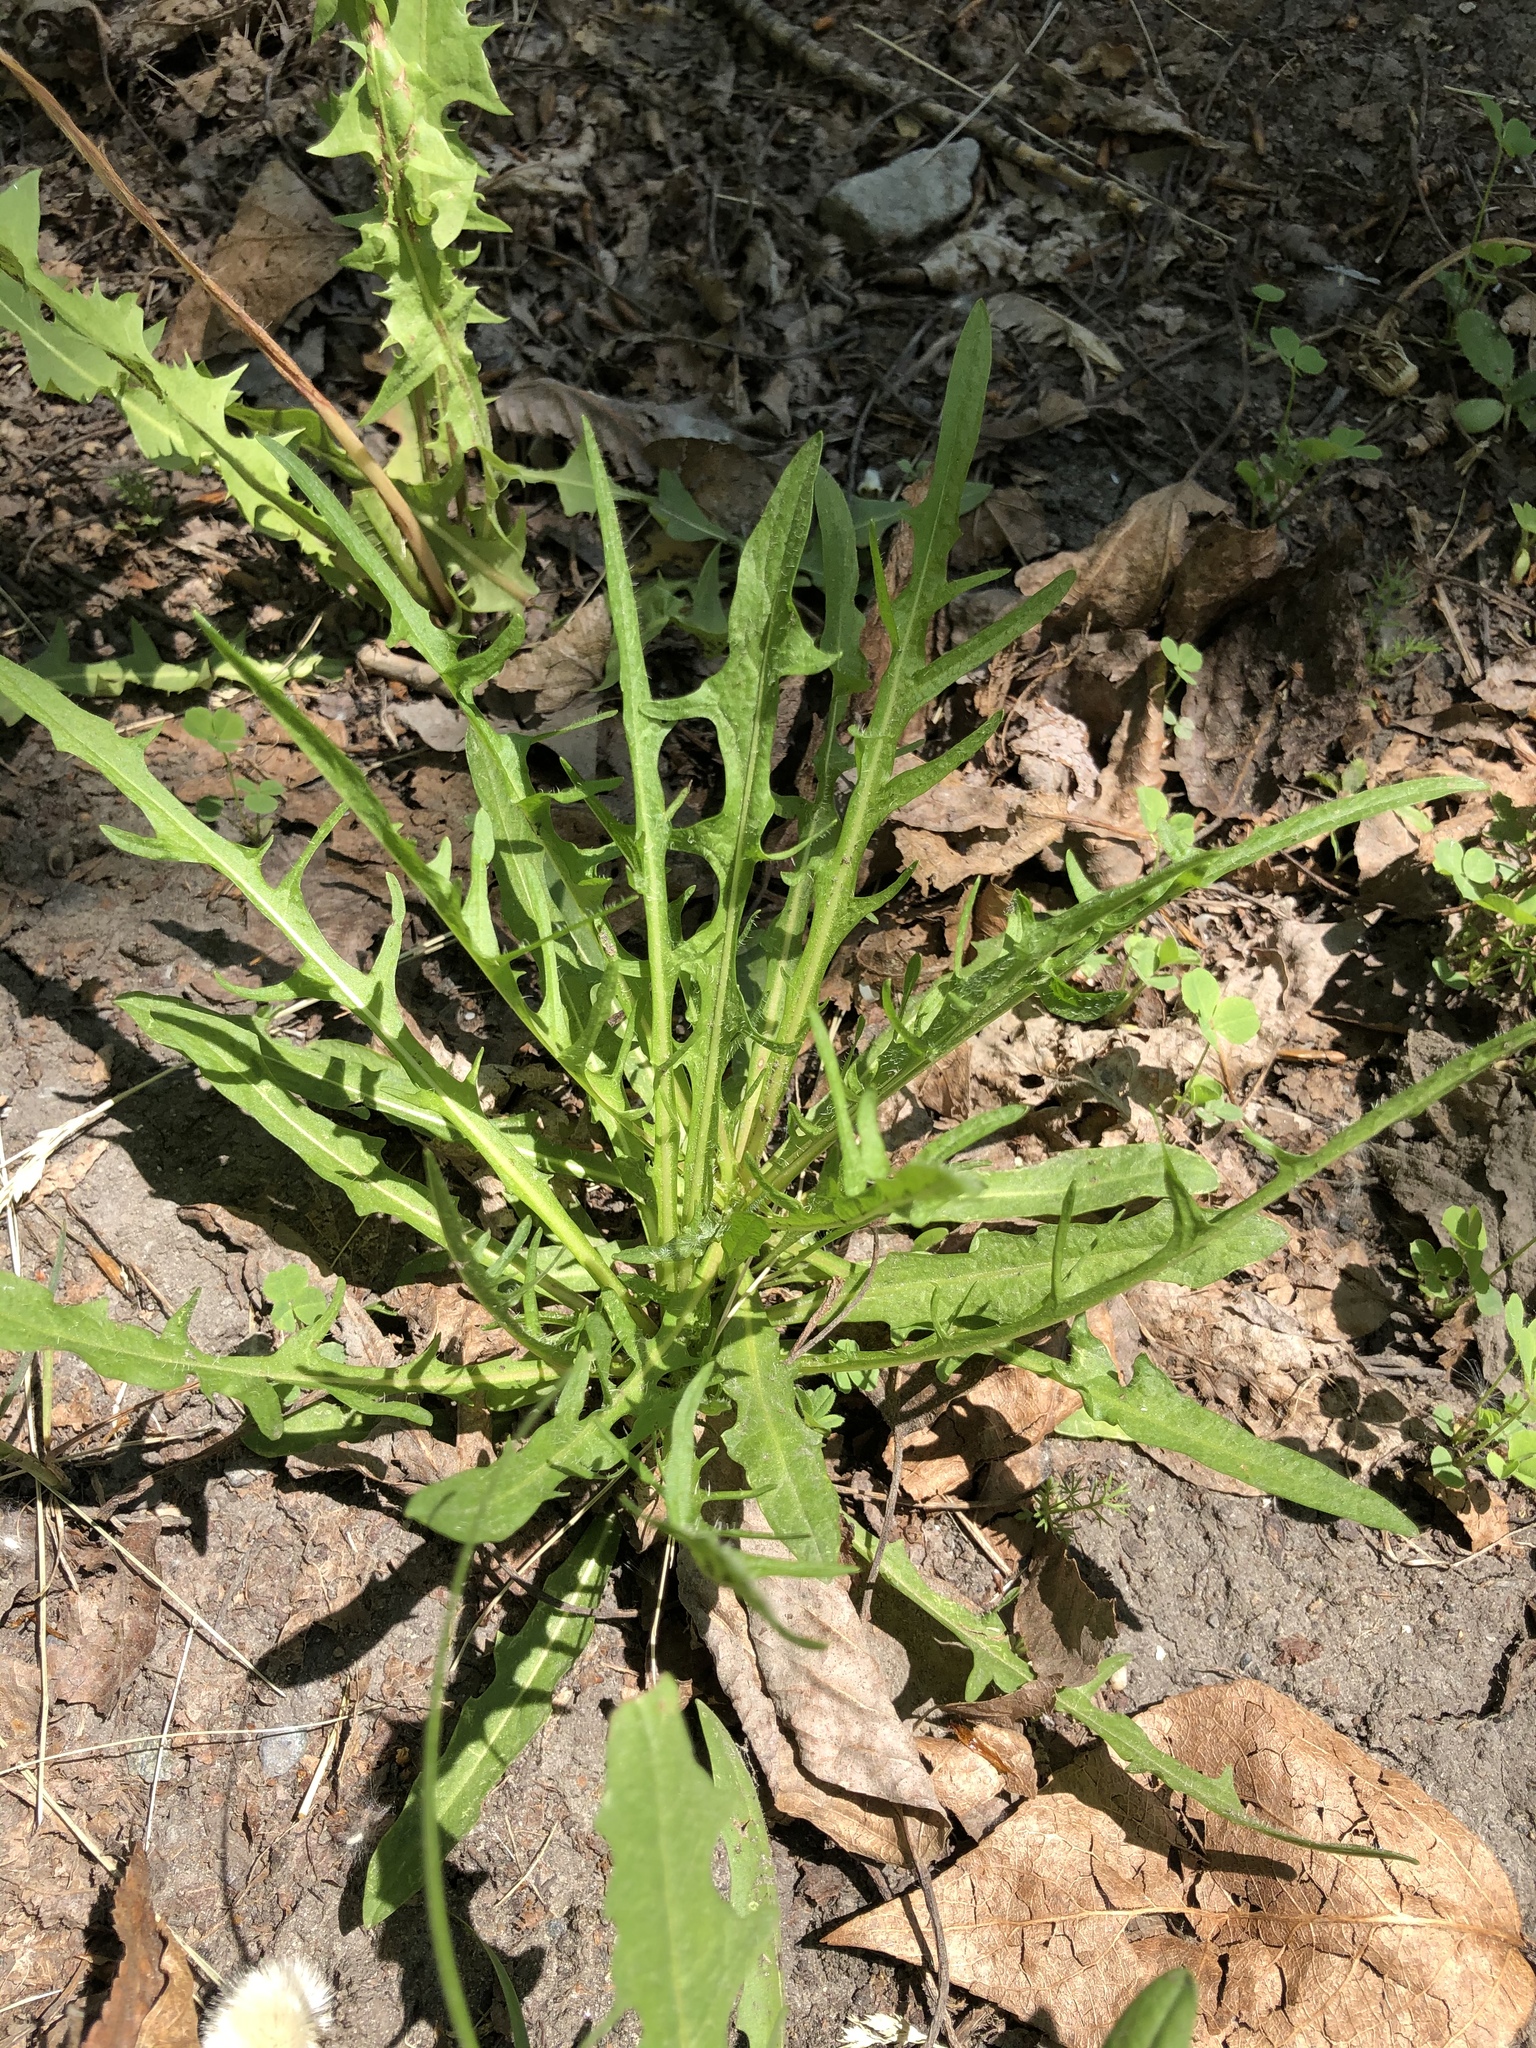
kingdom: Plantae
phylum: Tracheophyta
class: Magnoliopsida
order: Asterales
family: Asteraceae
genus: Scorzoneroides
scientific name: Scorzoneroides autumnalis
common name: Autumn hawkbit
